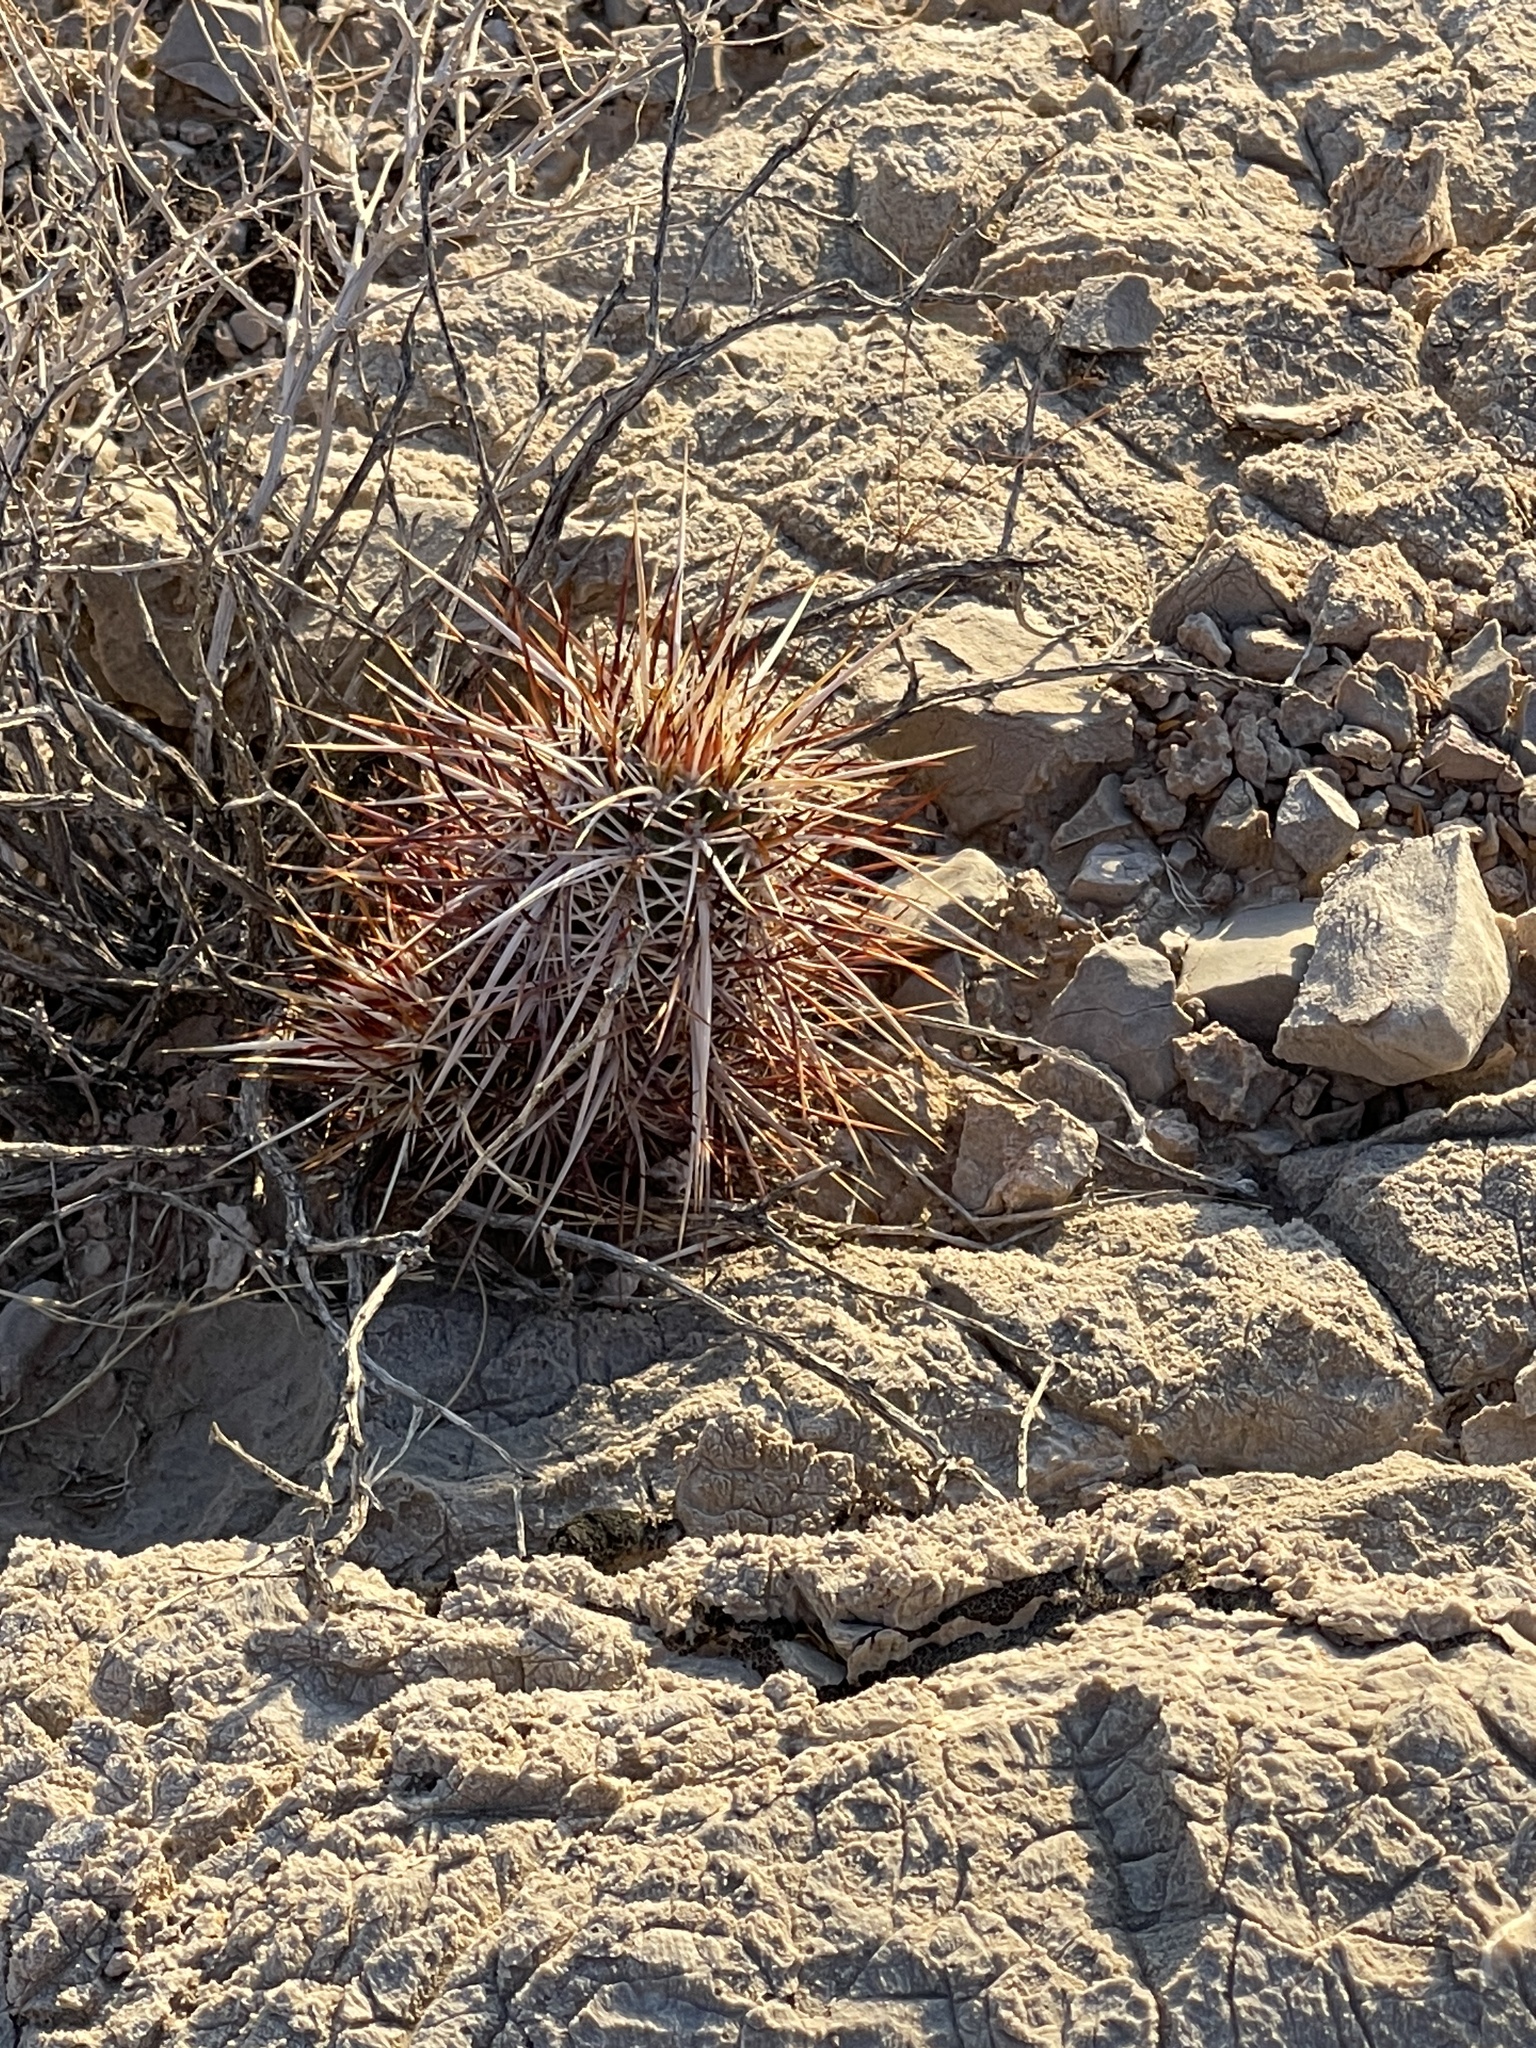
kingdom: Plantae
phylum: Tracheophyta
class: Magnoliopsida
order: Caryophyllales
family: Cactaceae
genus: Echinocereus
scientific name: Echinocereus engelmannii
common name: Engelmann's hedgehog cactus
